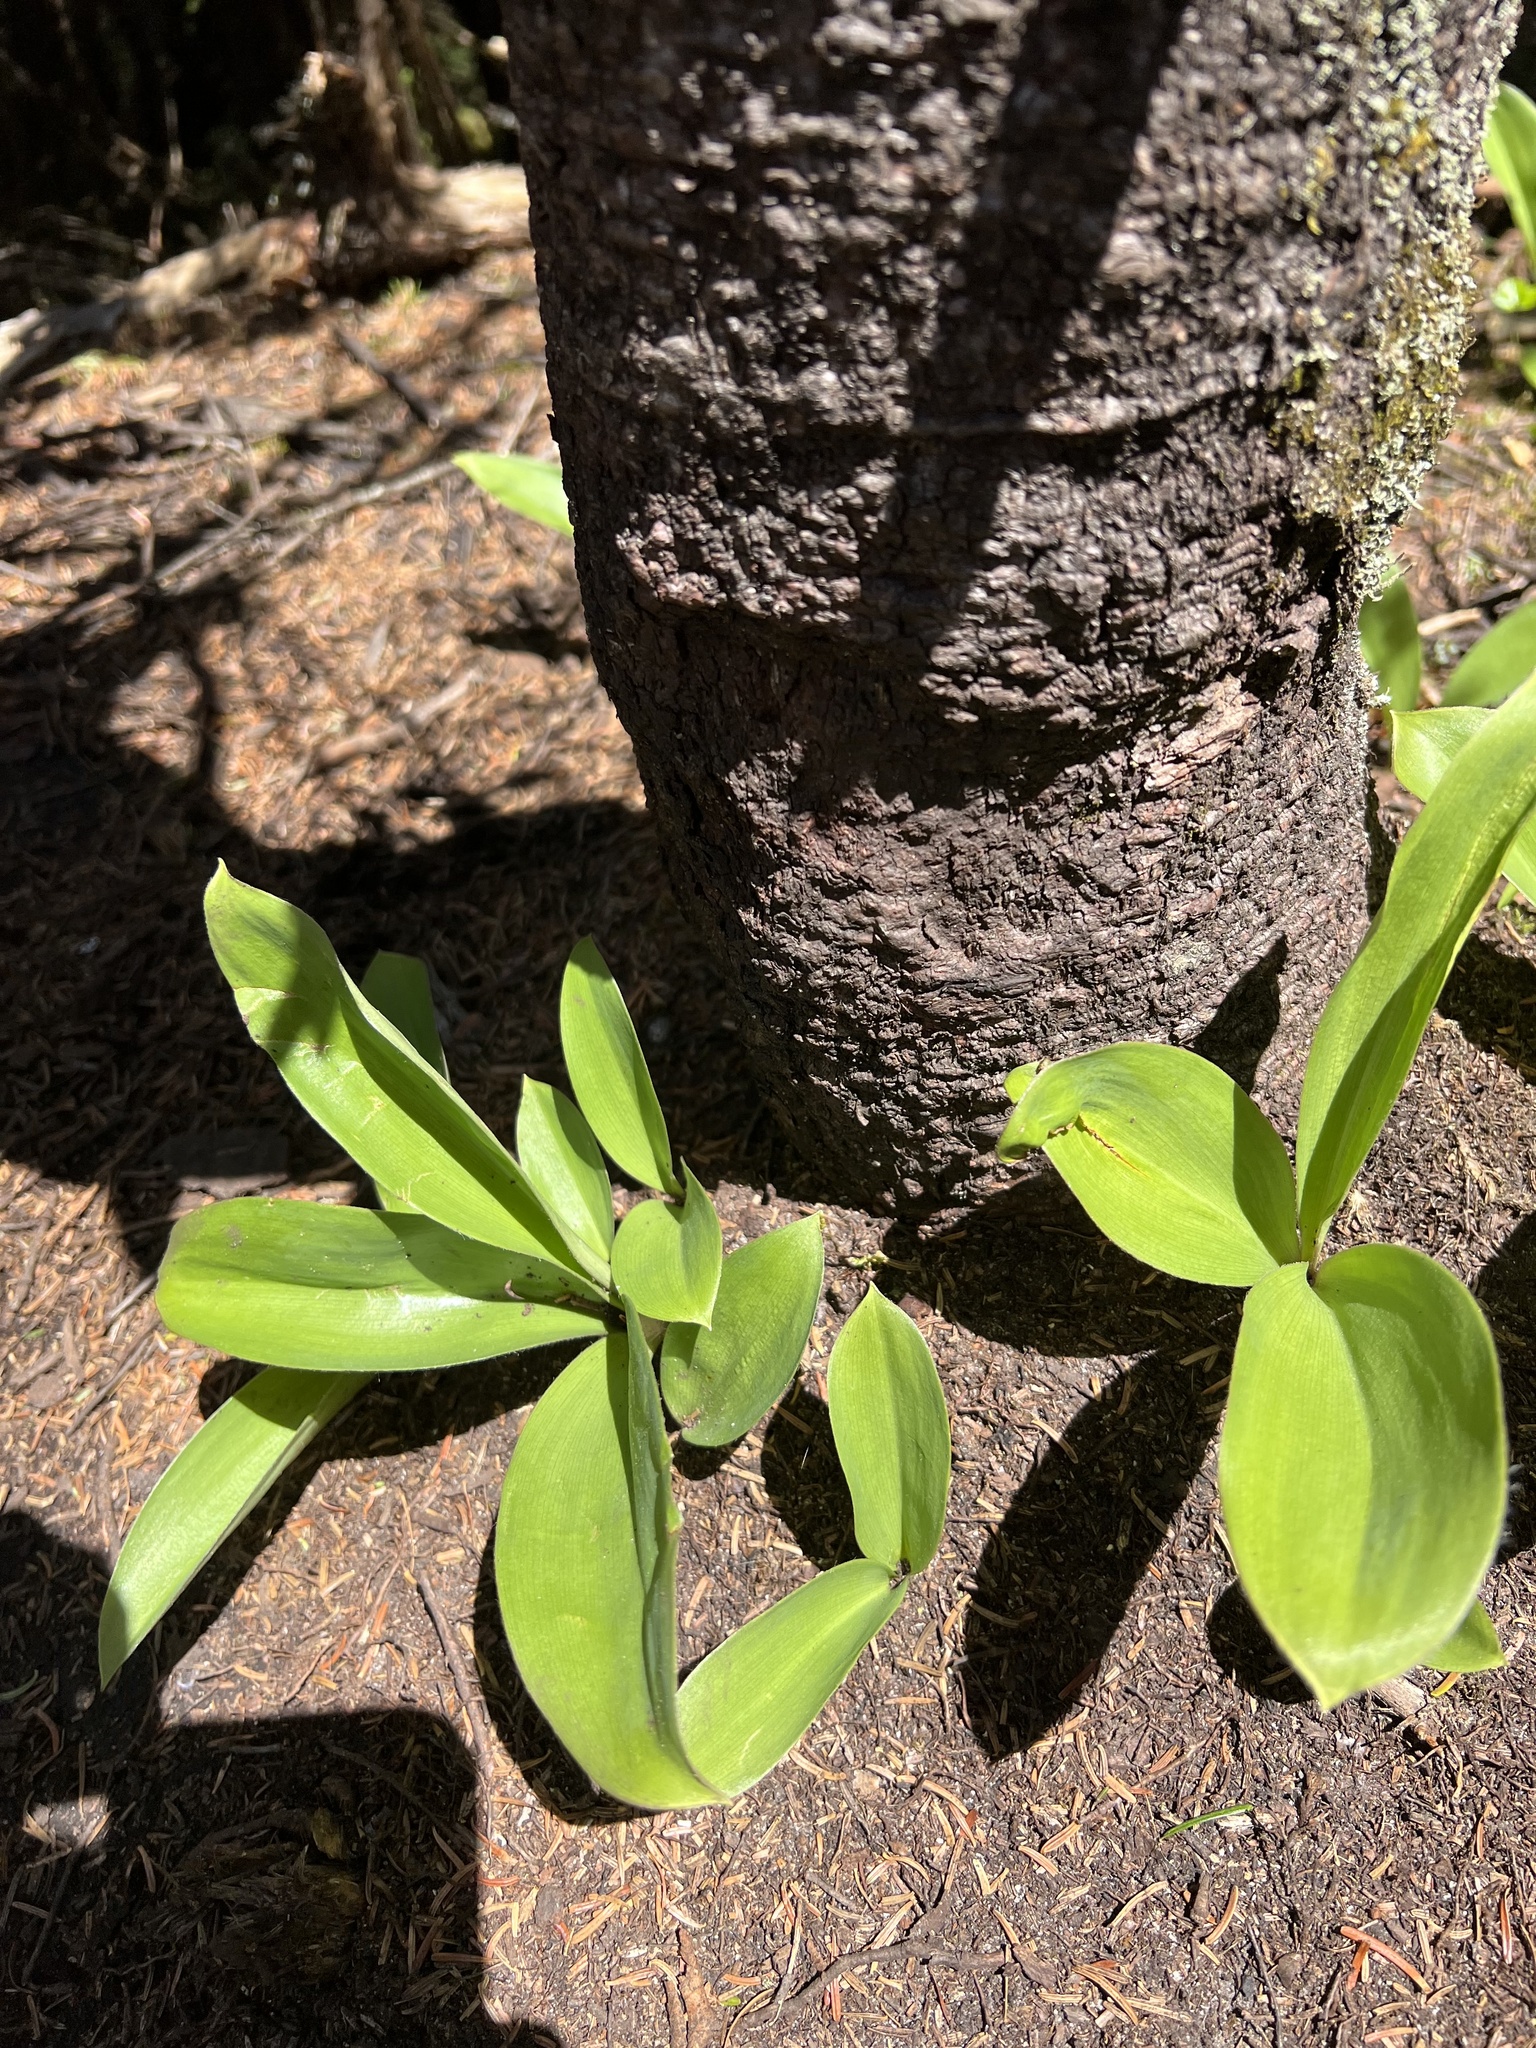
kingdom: Plantae
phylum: Tracheophyta
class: Liliopsida
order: Liliales
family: Liliaceae
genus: Clintonia
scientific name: Clintonia borealis
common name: Yellow clintonia
